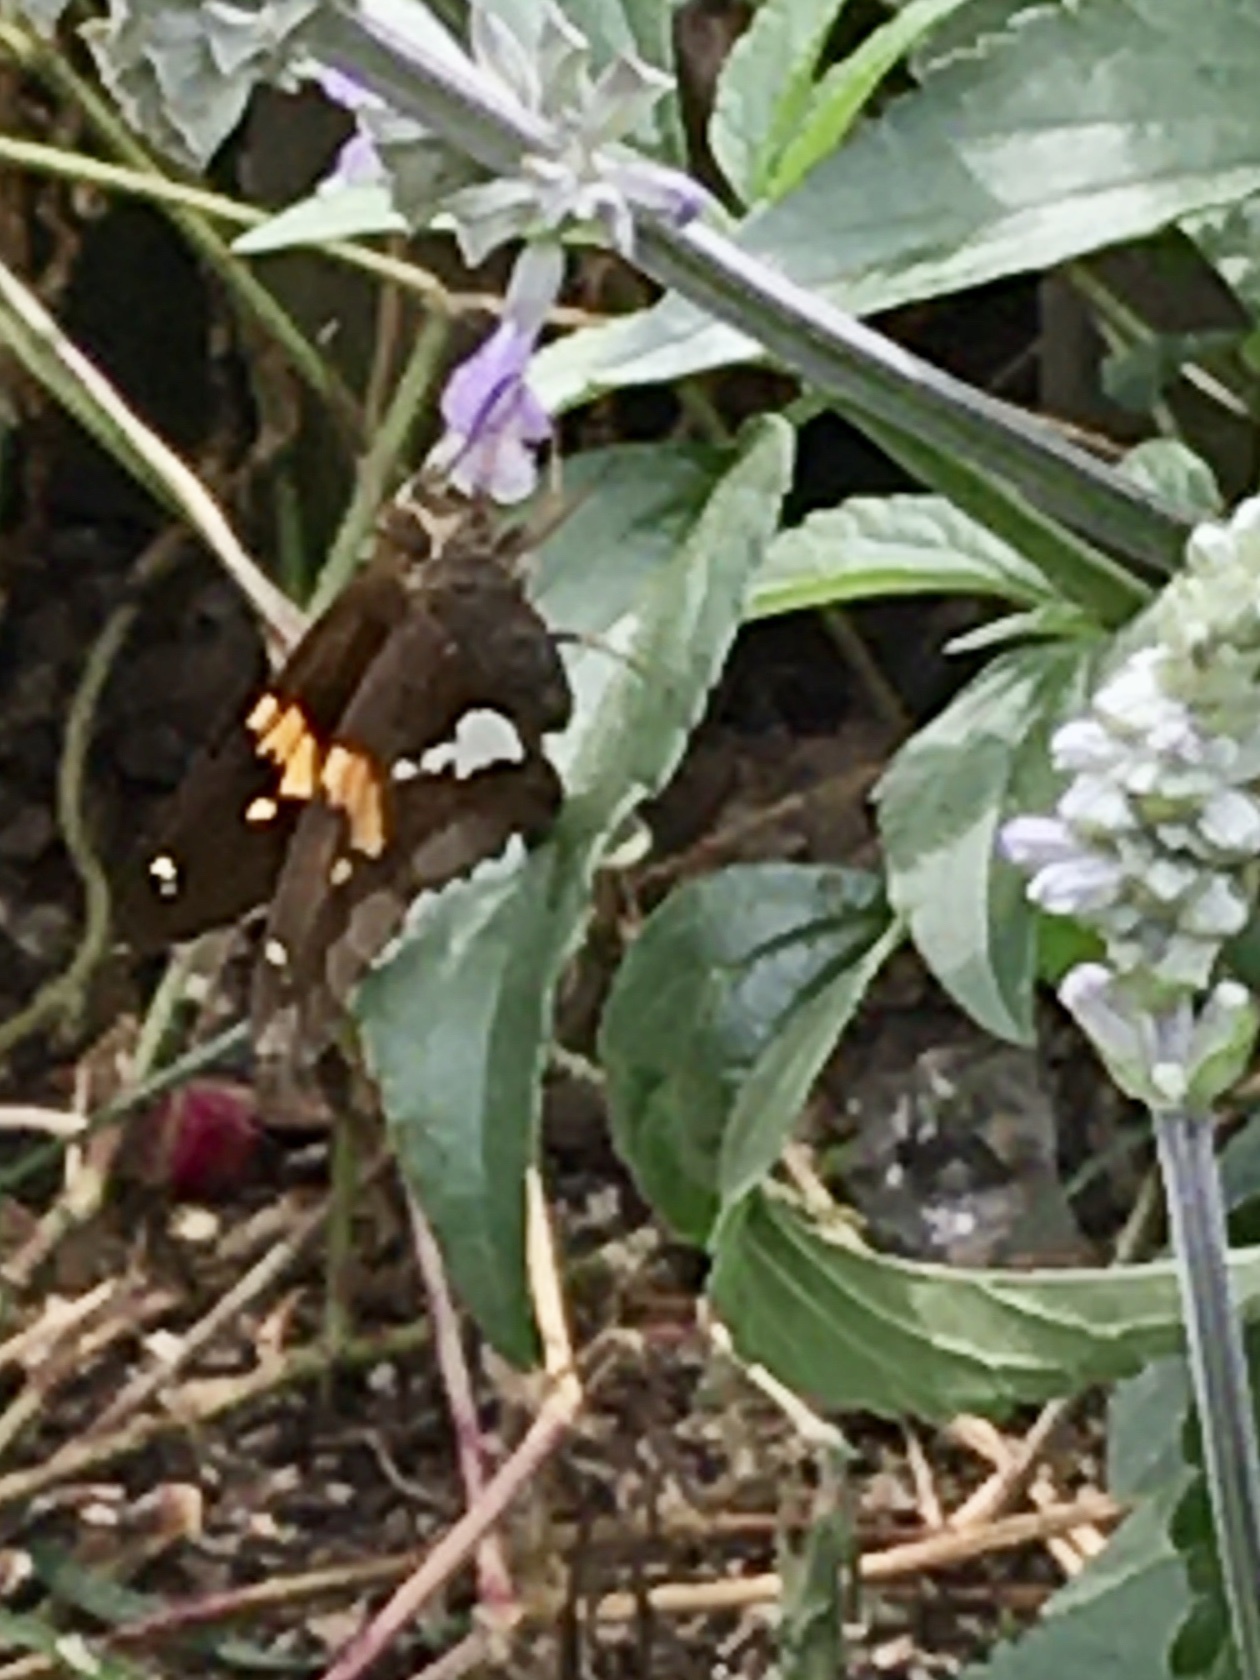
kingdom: Animalia
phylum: Arthropoda
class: Insecta
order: Lepidoptera
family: Hesperiidae
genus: Epargyreus
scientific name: Epargyreus clarus
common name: Silver-spotted skipper
